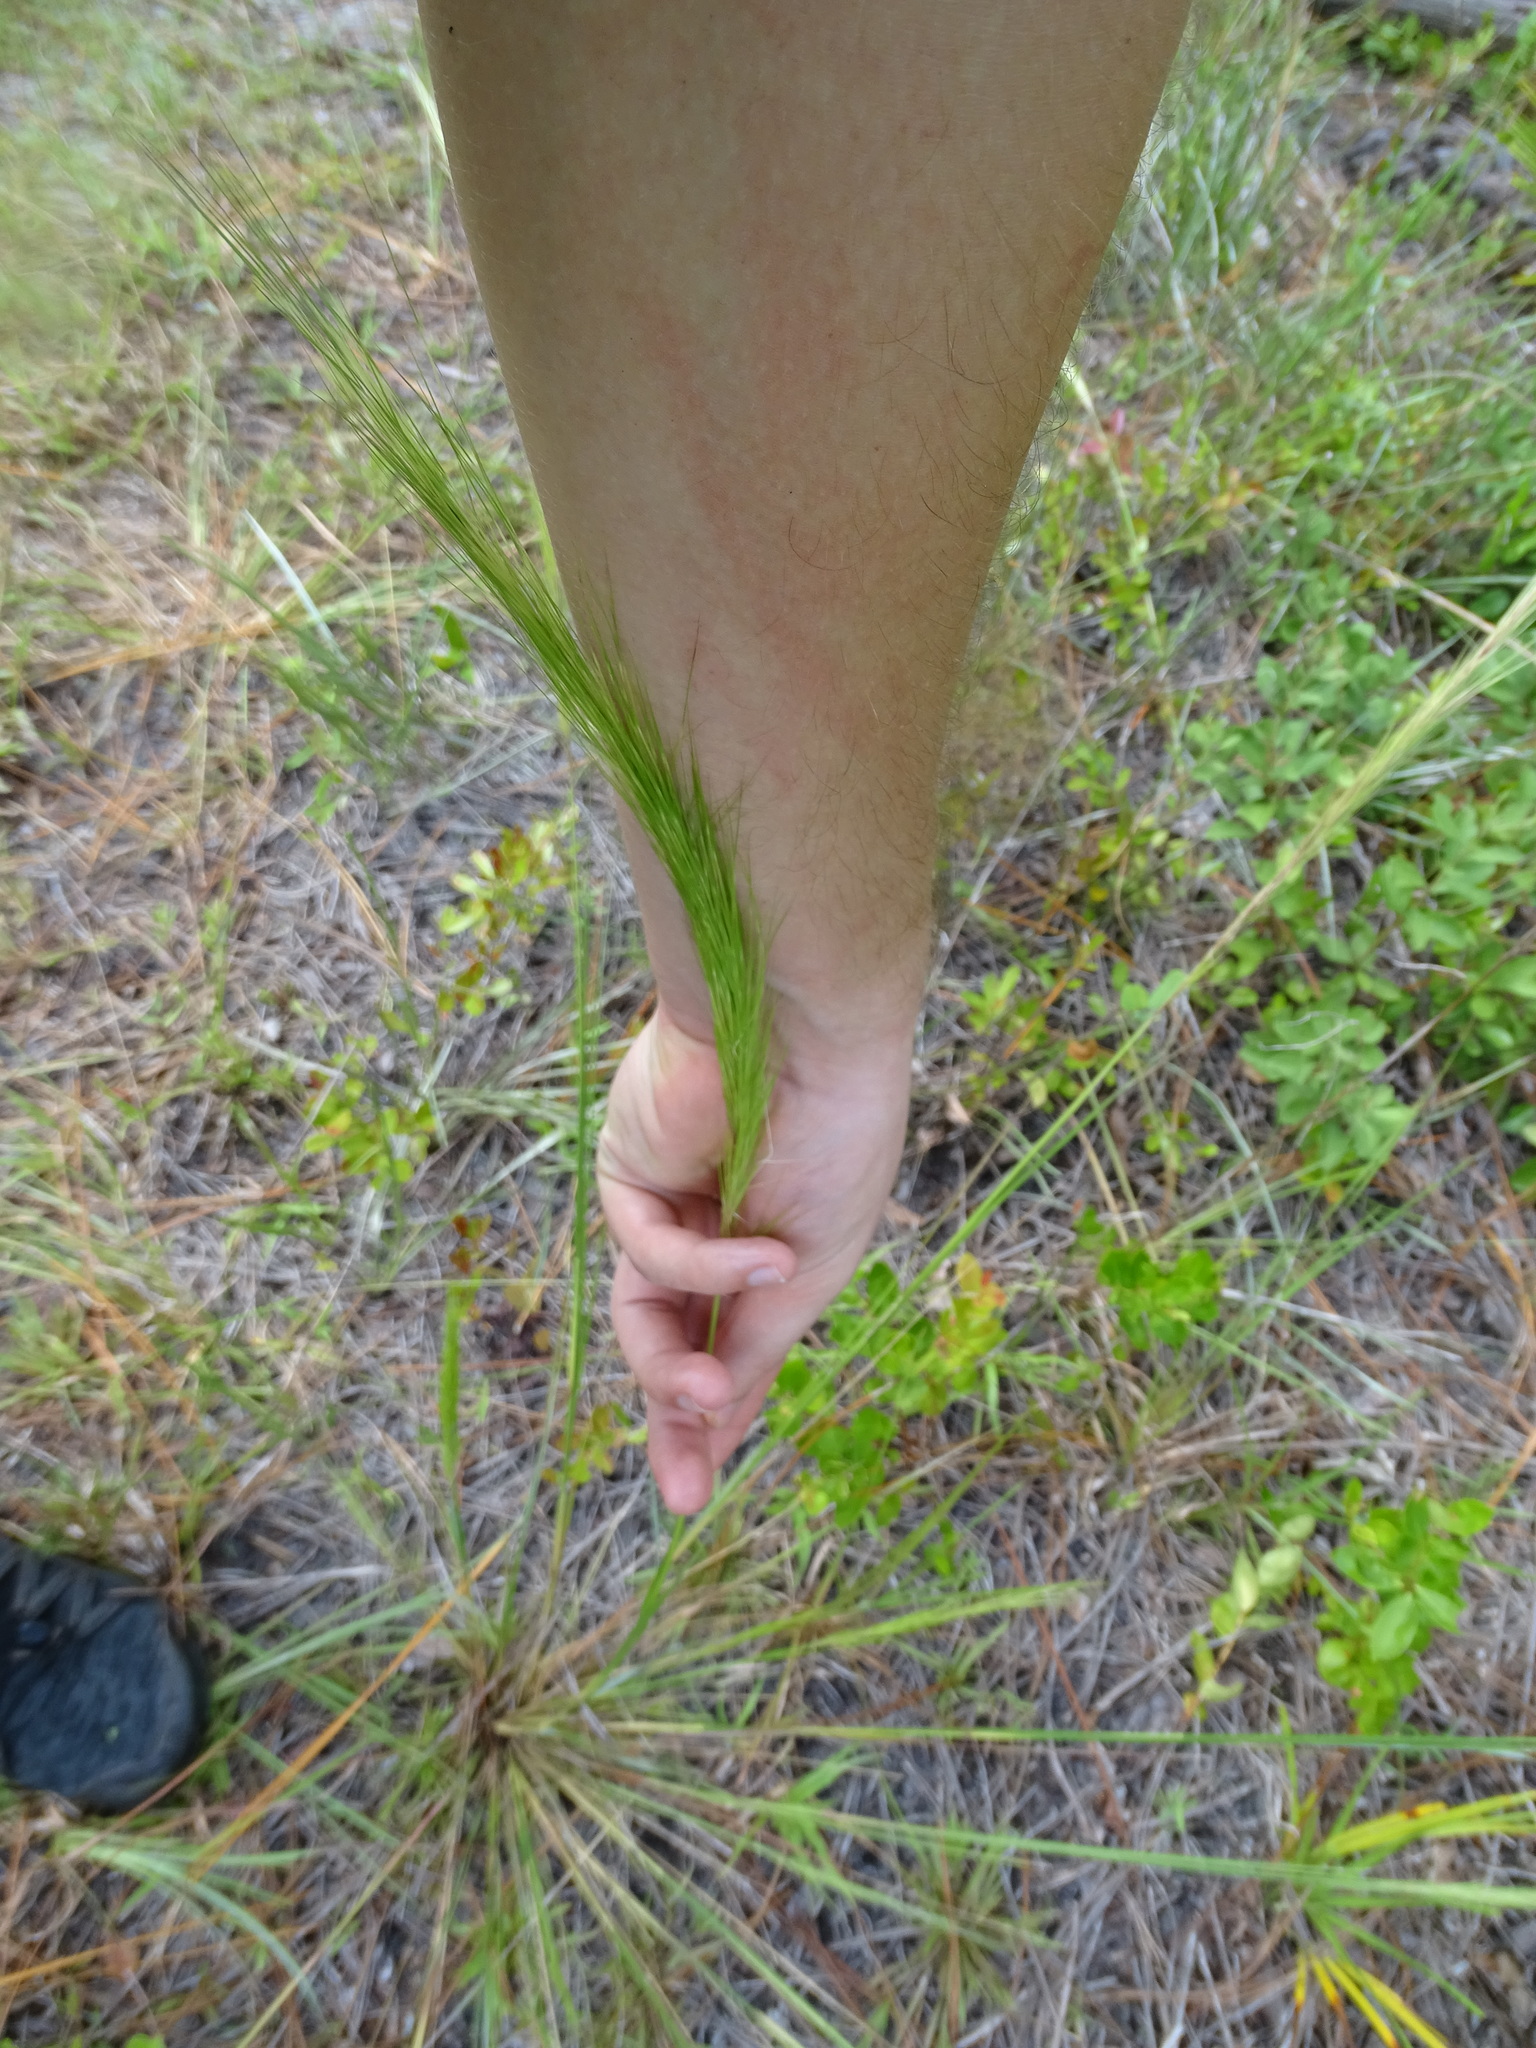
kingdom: Plantae
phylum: Tracheophyta
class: Liliopsida
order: Poales
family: Poaceae
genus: Aristida
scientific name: Aristida spiciformis
